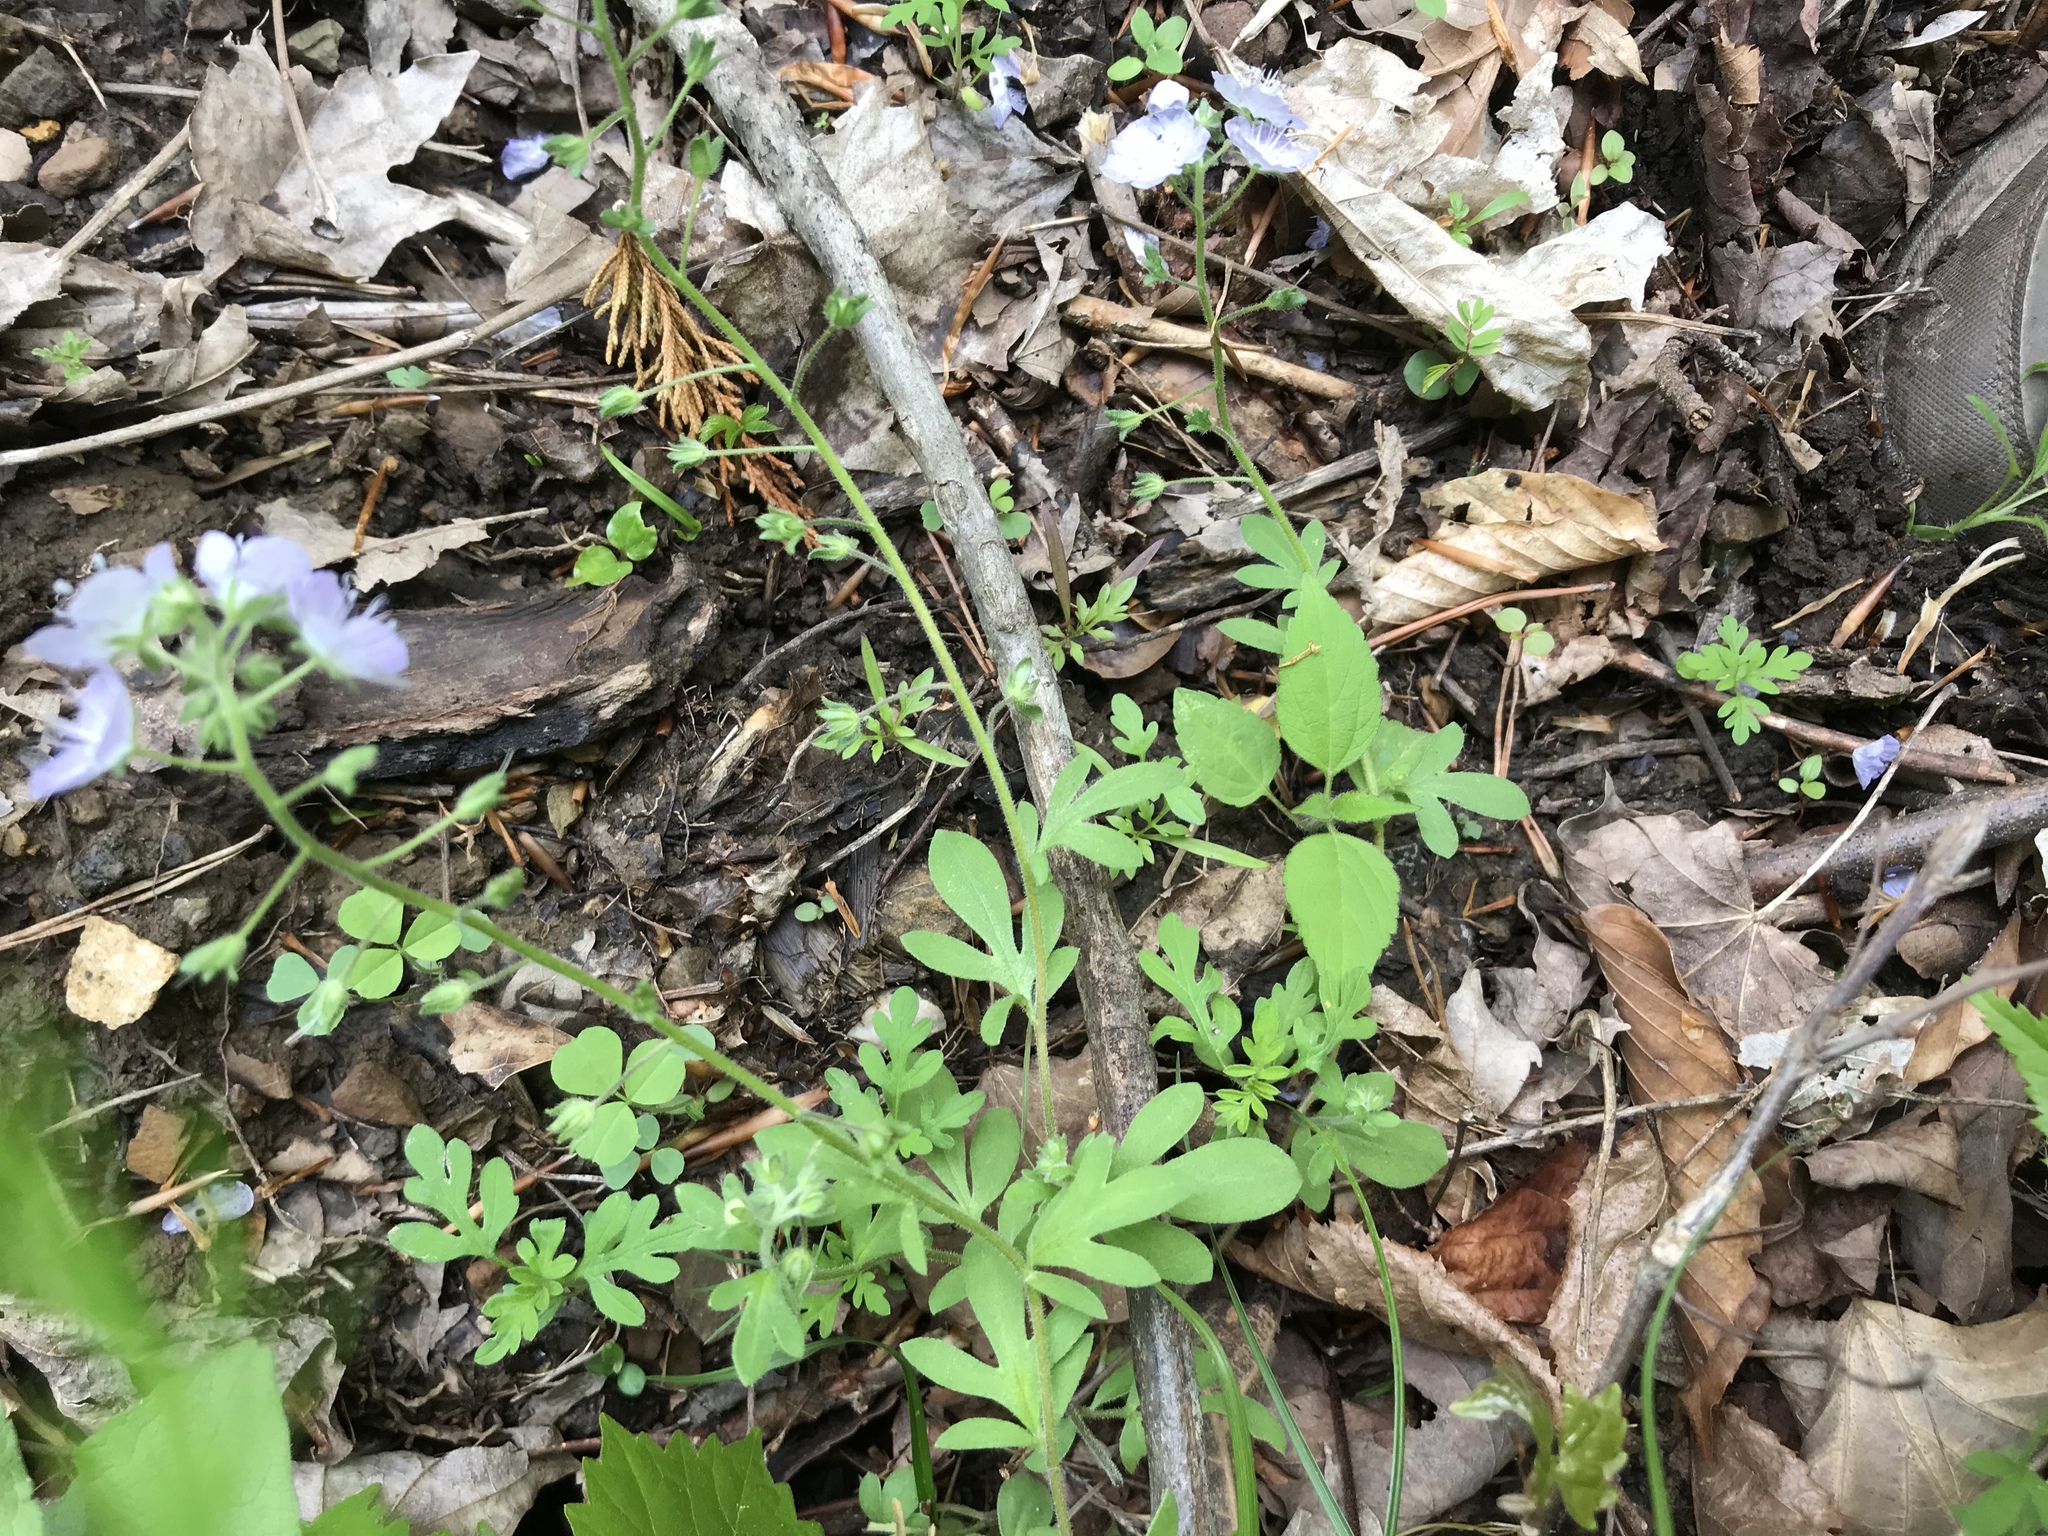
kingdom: Plantae
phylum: Tracheophyta
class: Magnoliopsida
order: Boraginales
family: Hydrophyllaceae
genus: Phacelia
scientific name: Phacelia dubia
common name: Appalachian phacelia
